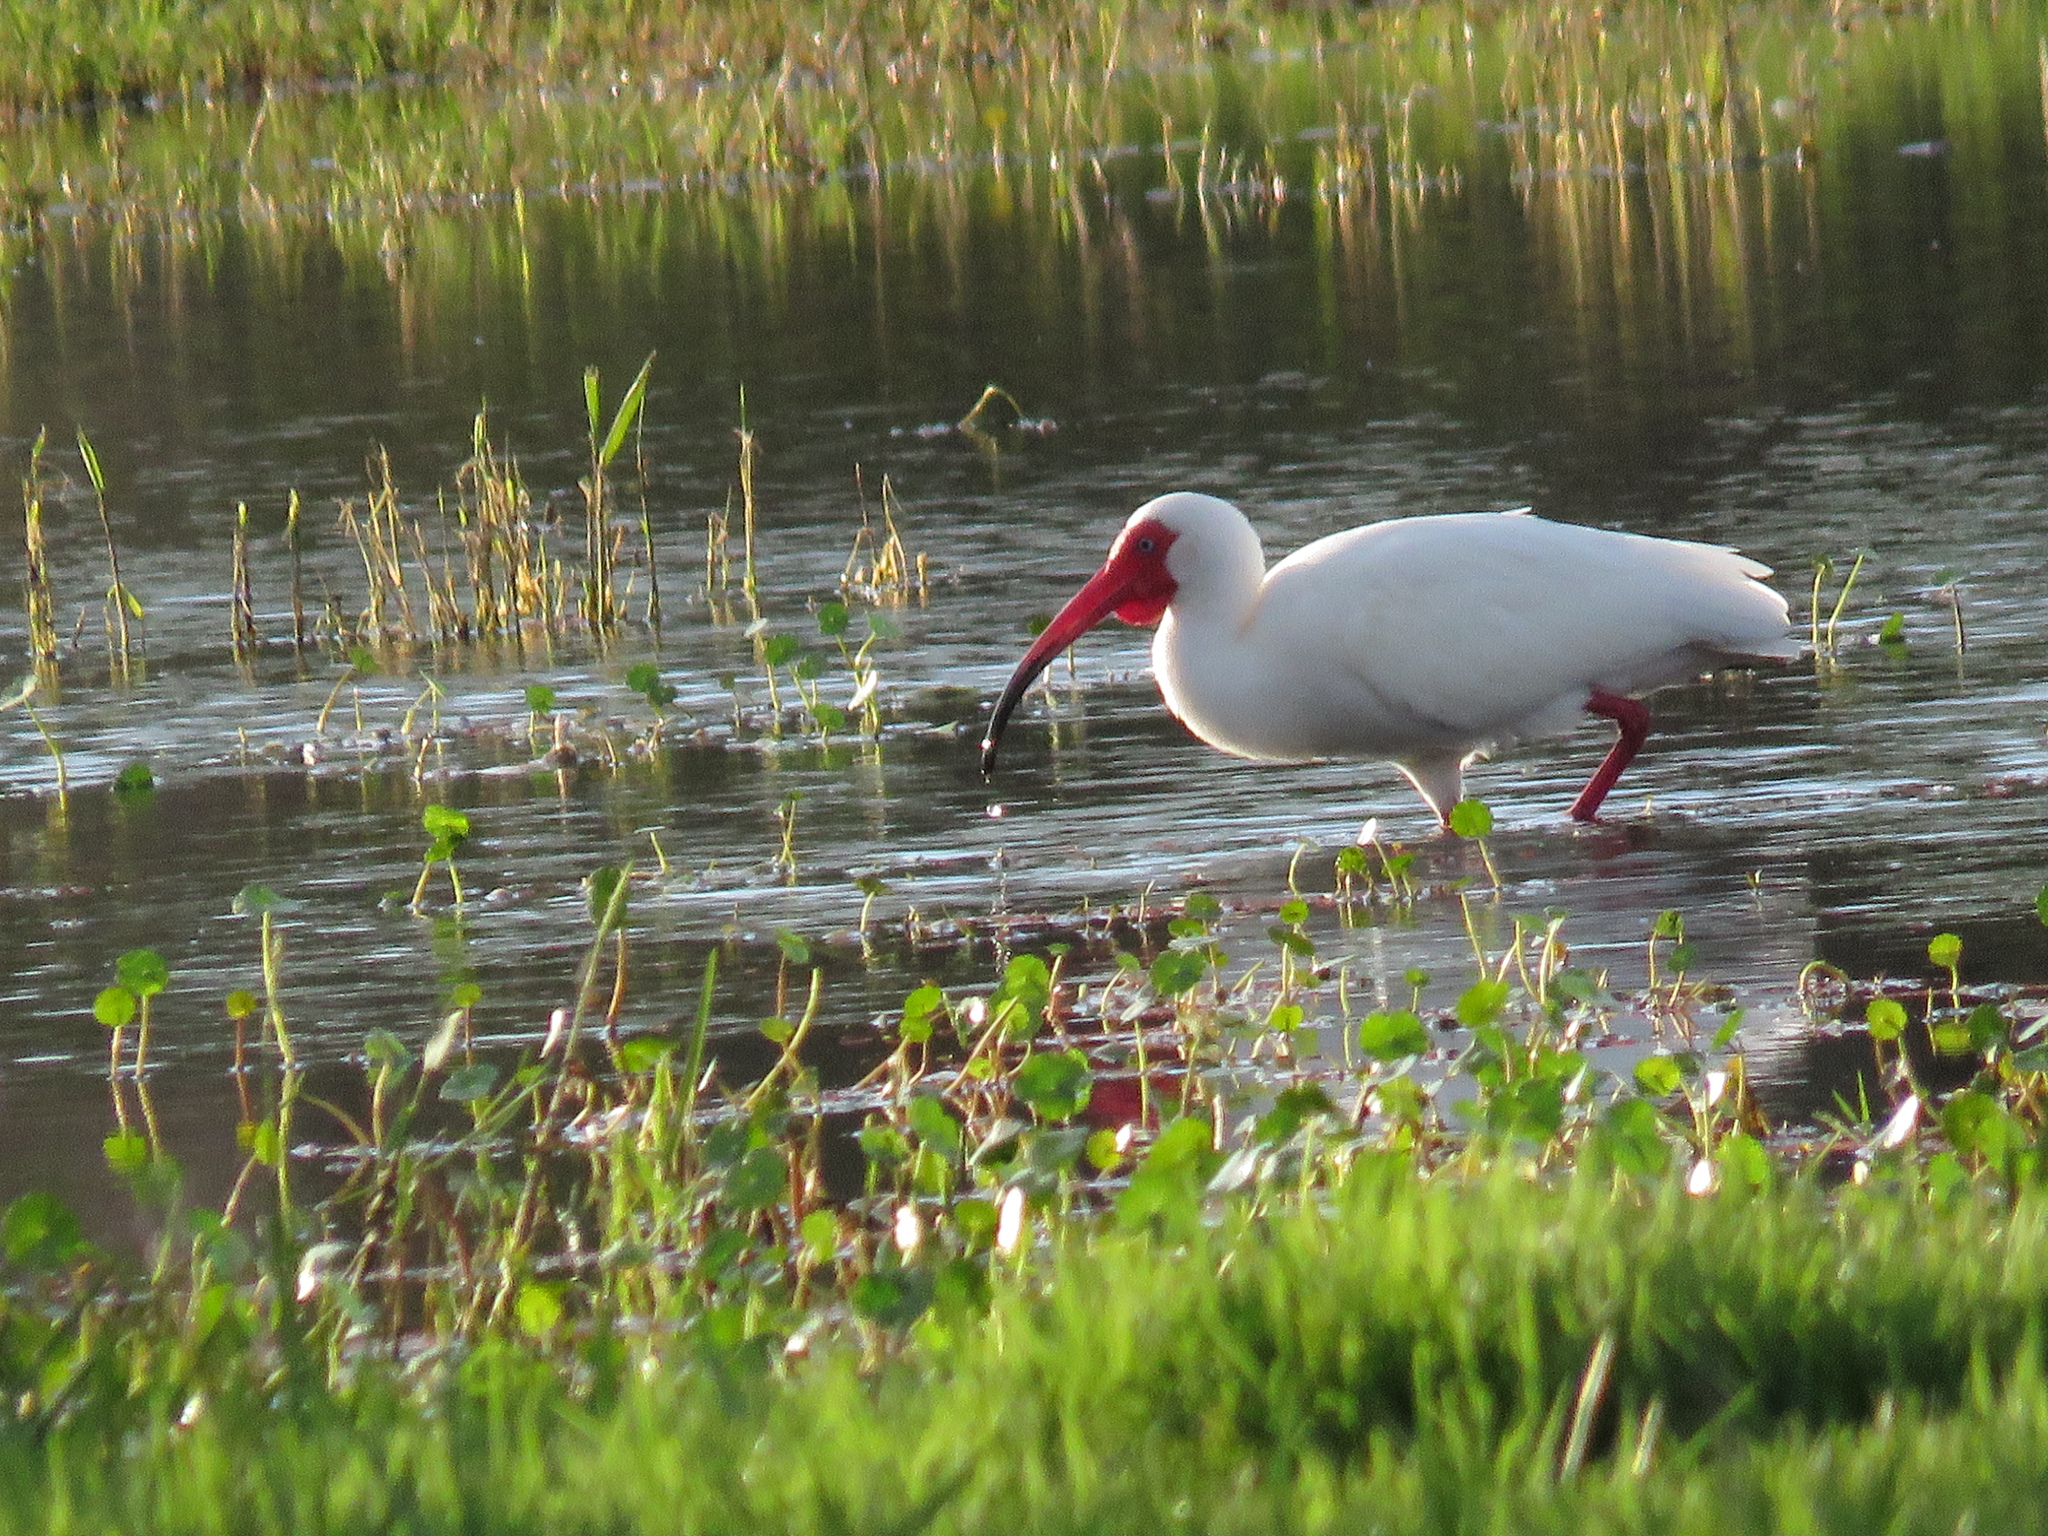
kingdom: Animalia
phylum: Chordata
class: Aves
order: Pelecaniformes
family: Threskiornithidae
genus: Eudocimus
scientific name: Eudocimus albus
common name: White ibis
